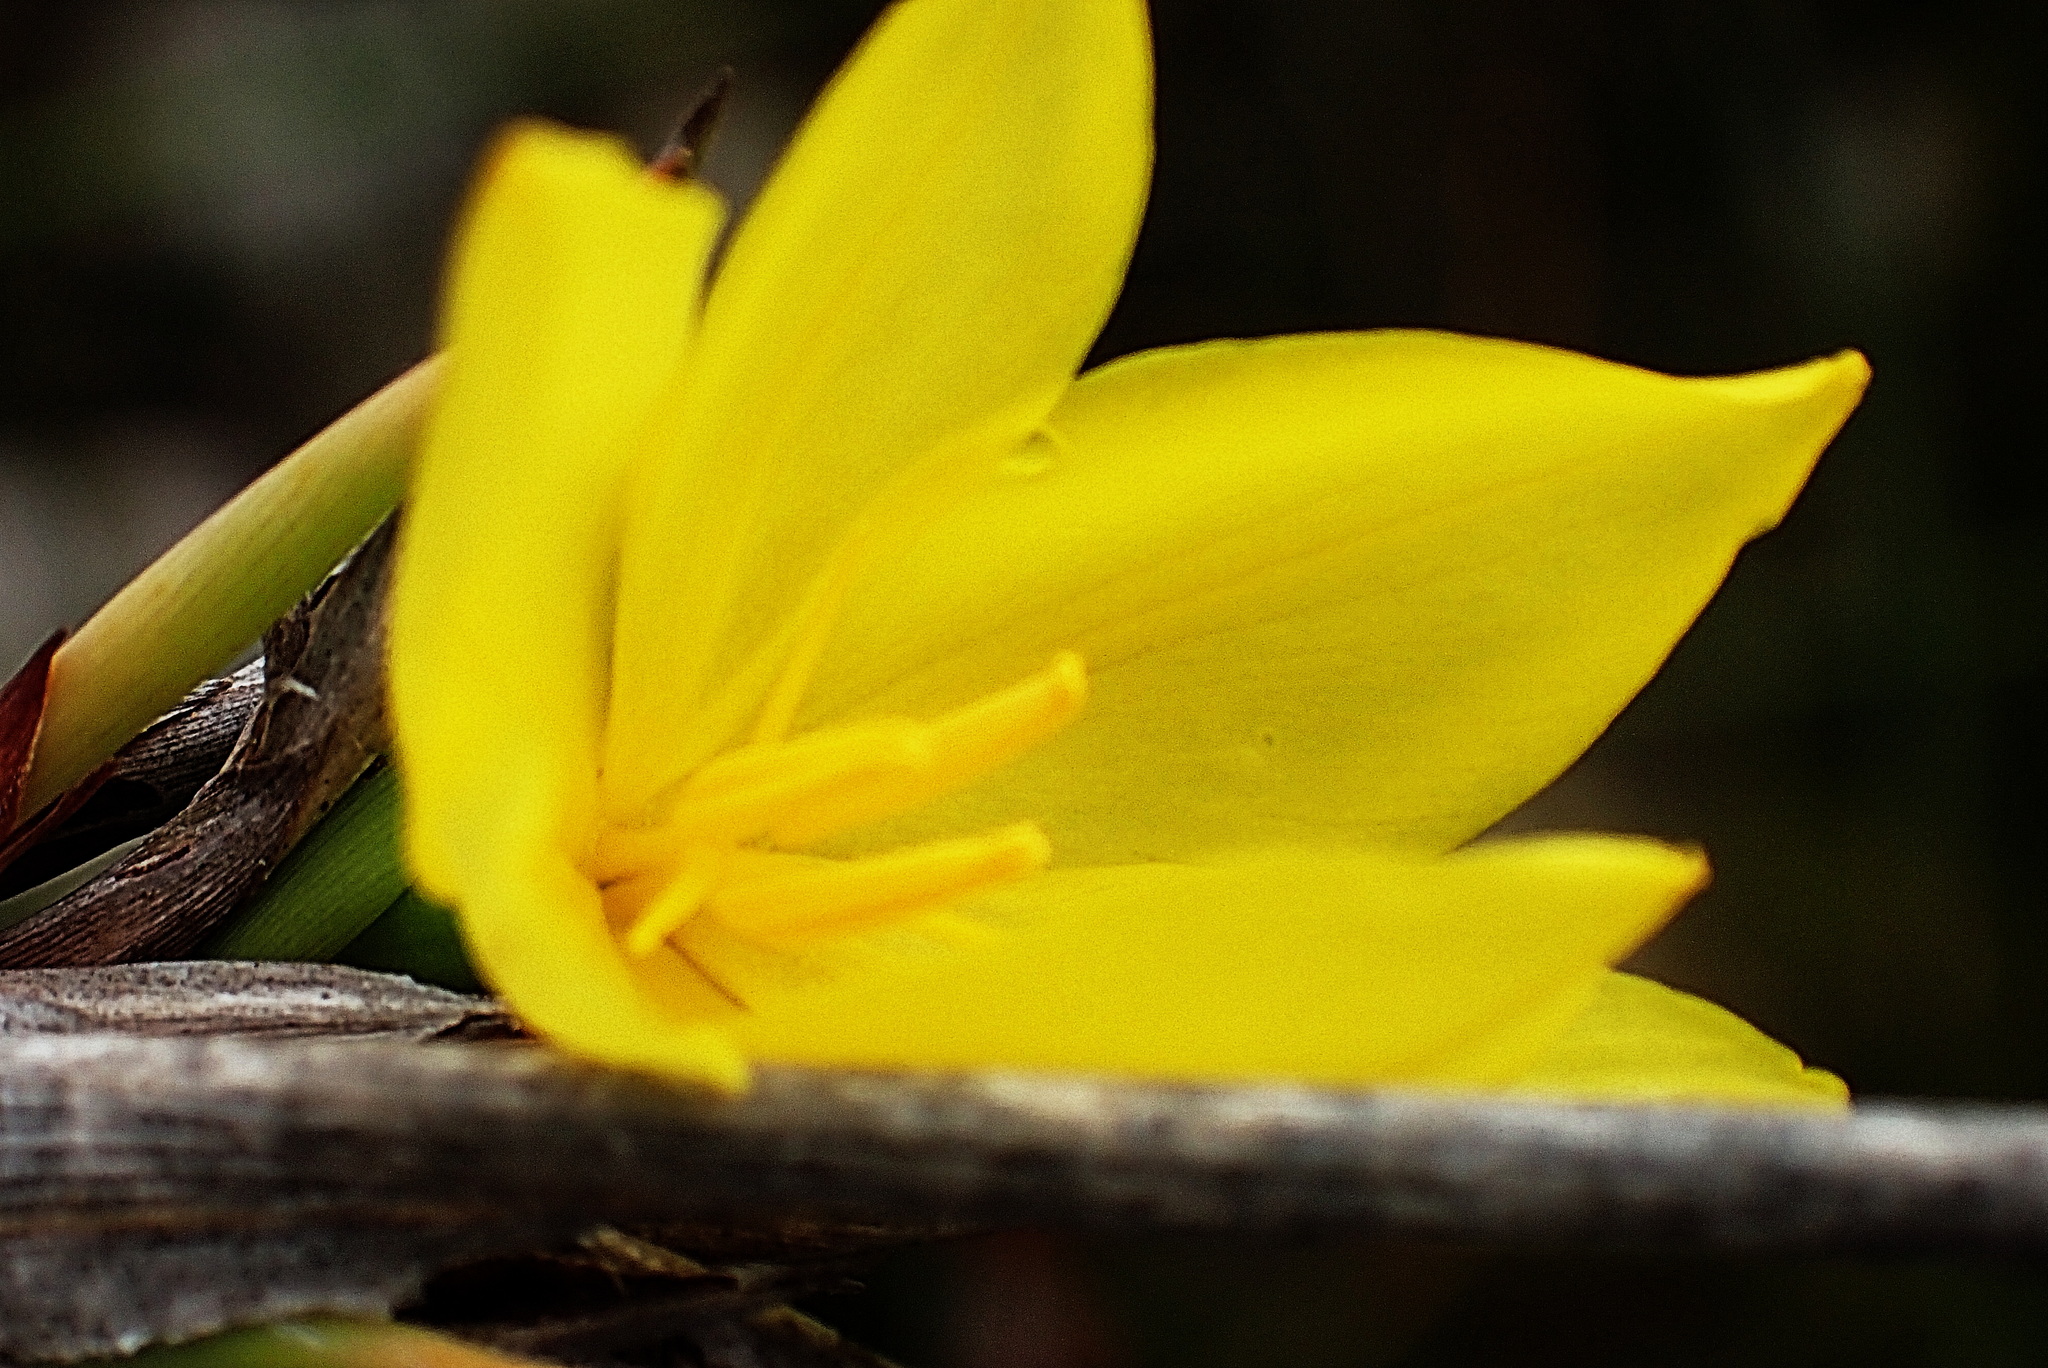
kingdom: Plantae
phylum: Tracheophyta
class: Liliopsida
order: Asparagales
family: Iridaceae
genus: Bobartia
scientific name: Bobartia robusta
